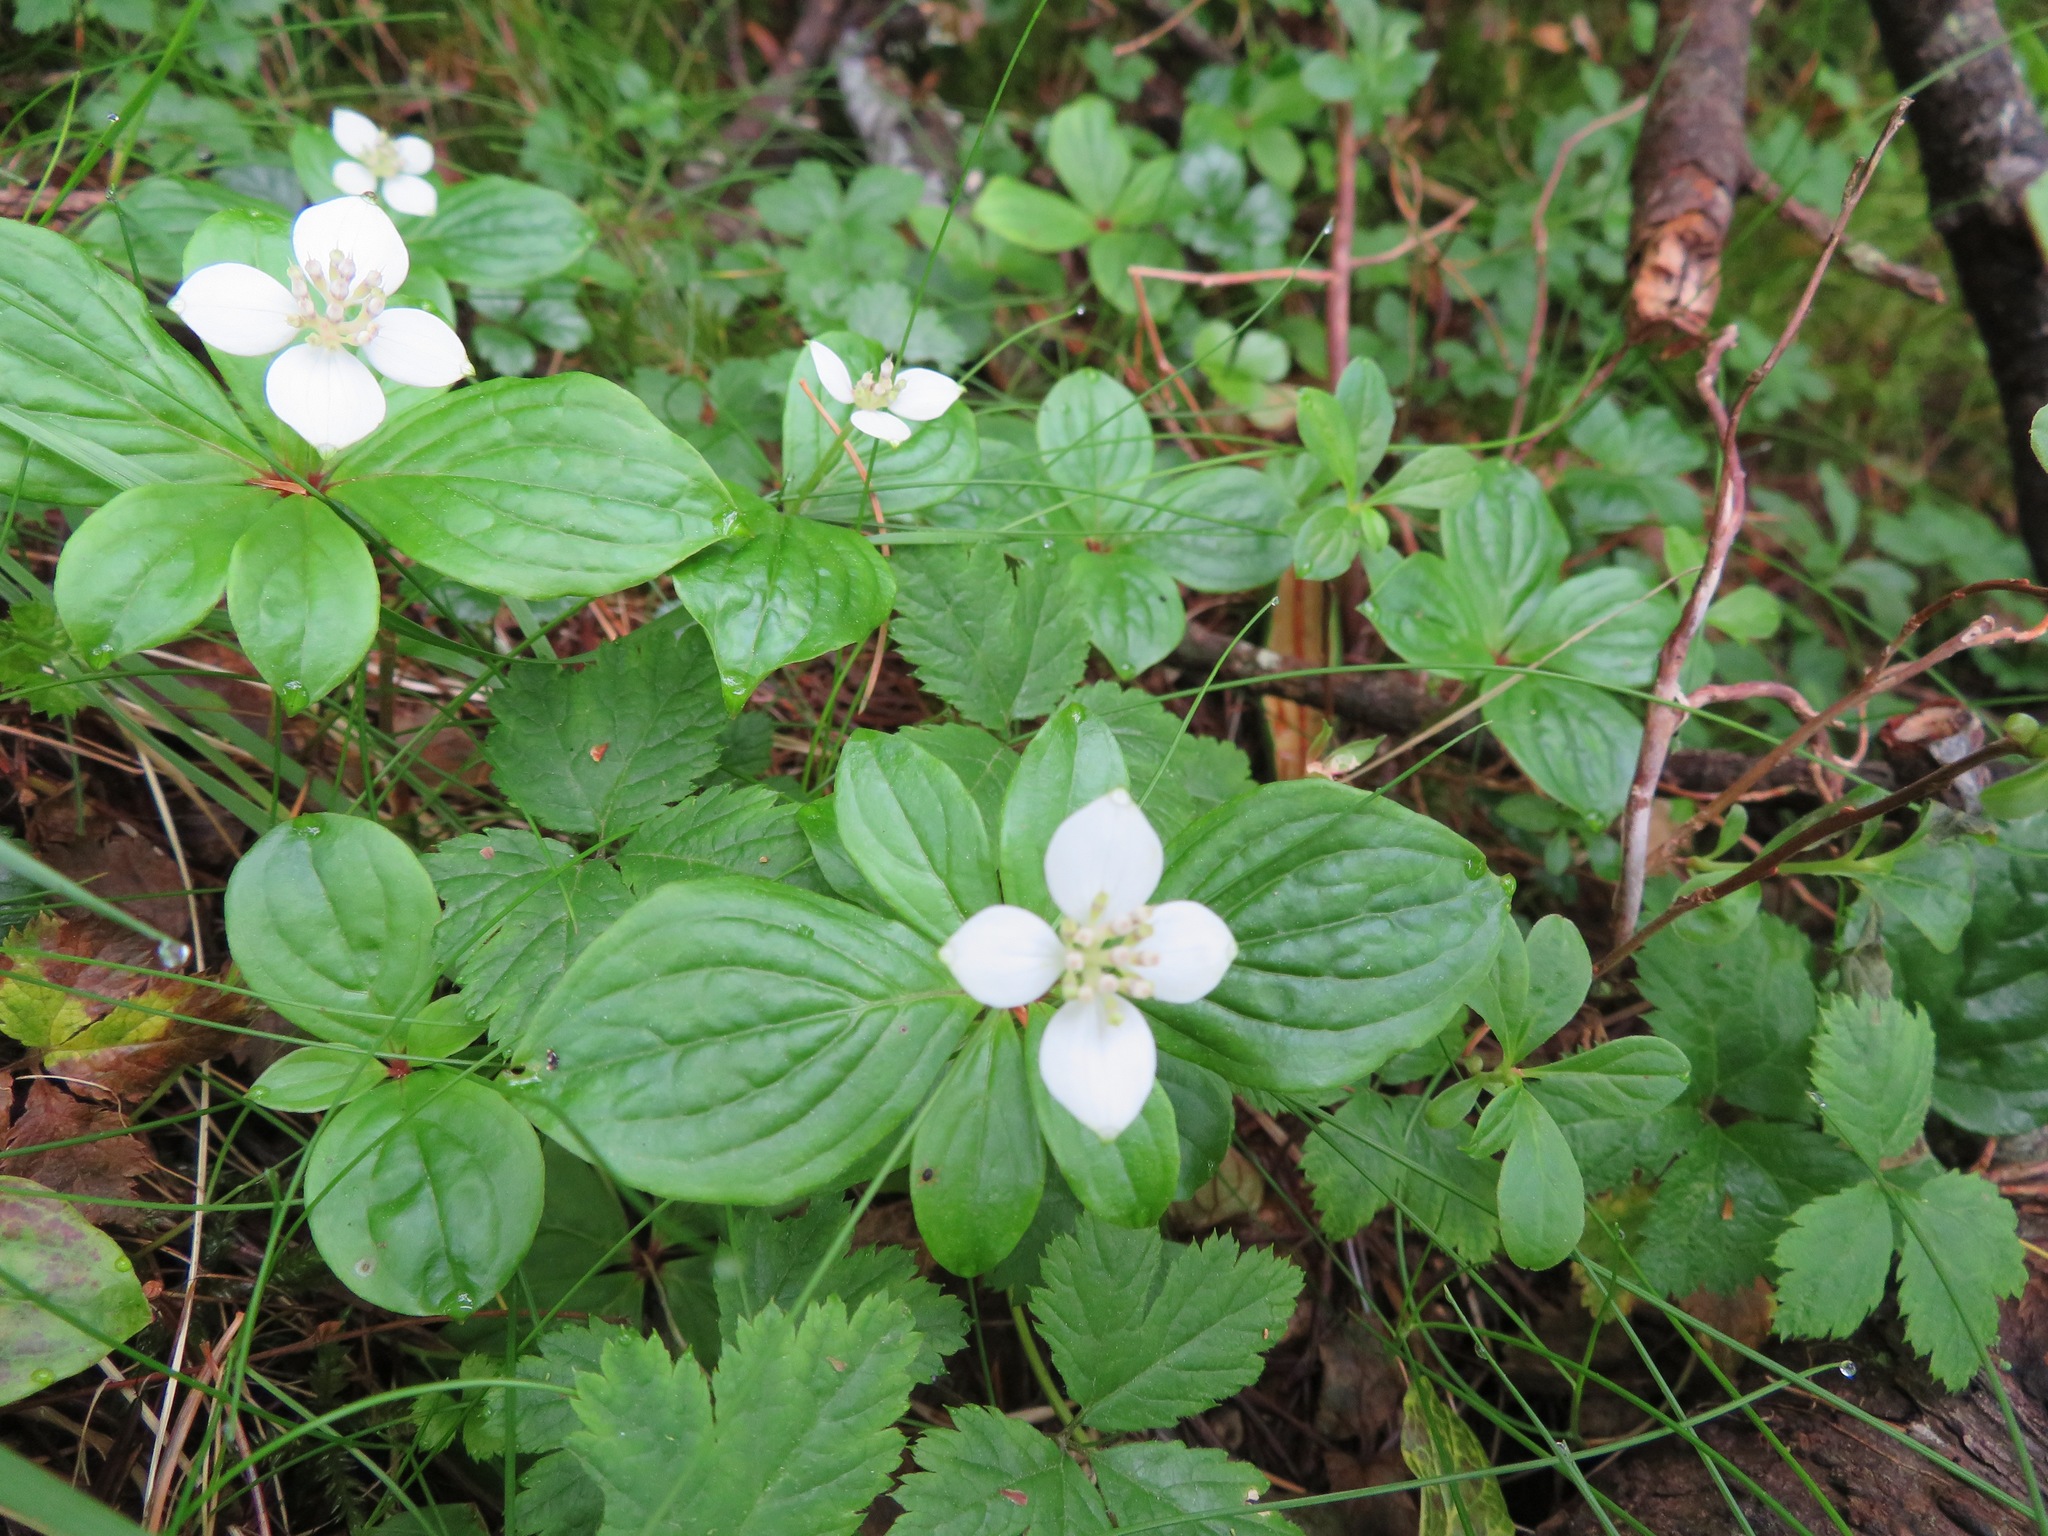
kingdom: Plantae
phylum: Tracheophyta
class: Magnoliopsida
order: Cornales
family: Cornaceae
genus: Cornus
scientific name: Cornus canadensis
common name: Creeping dogwood
